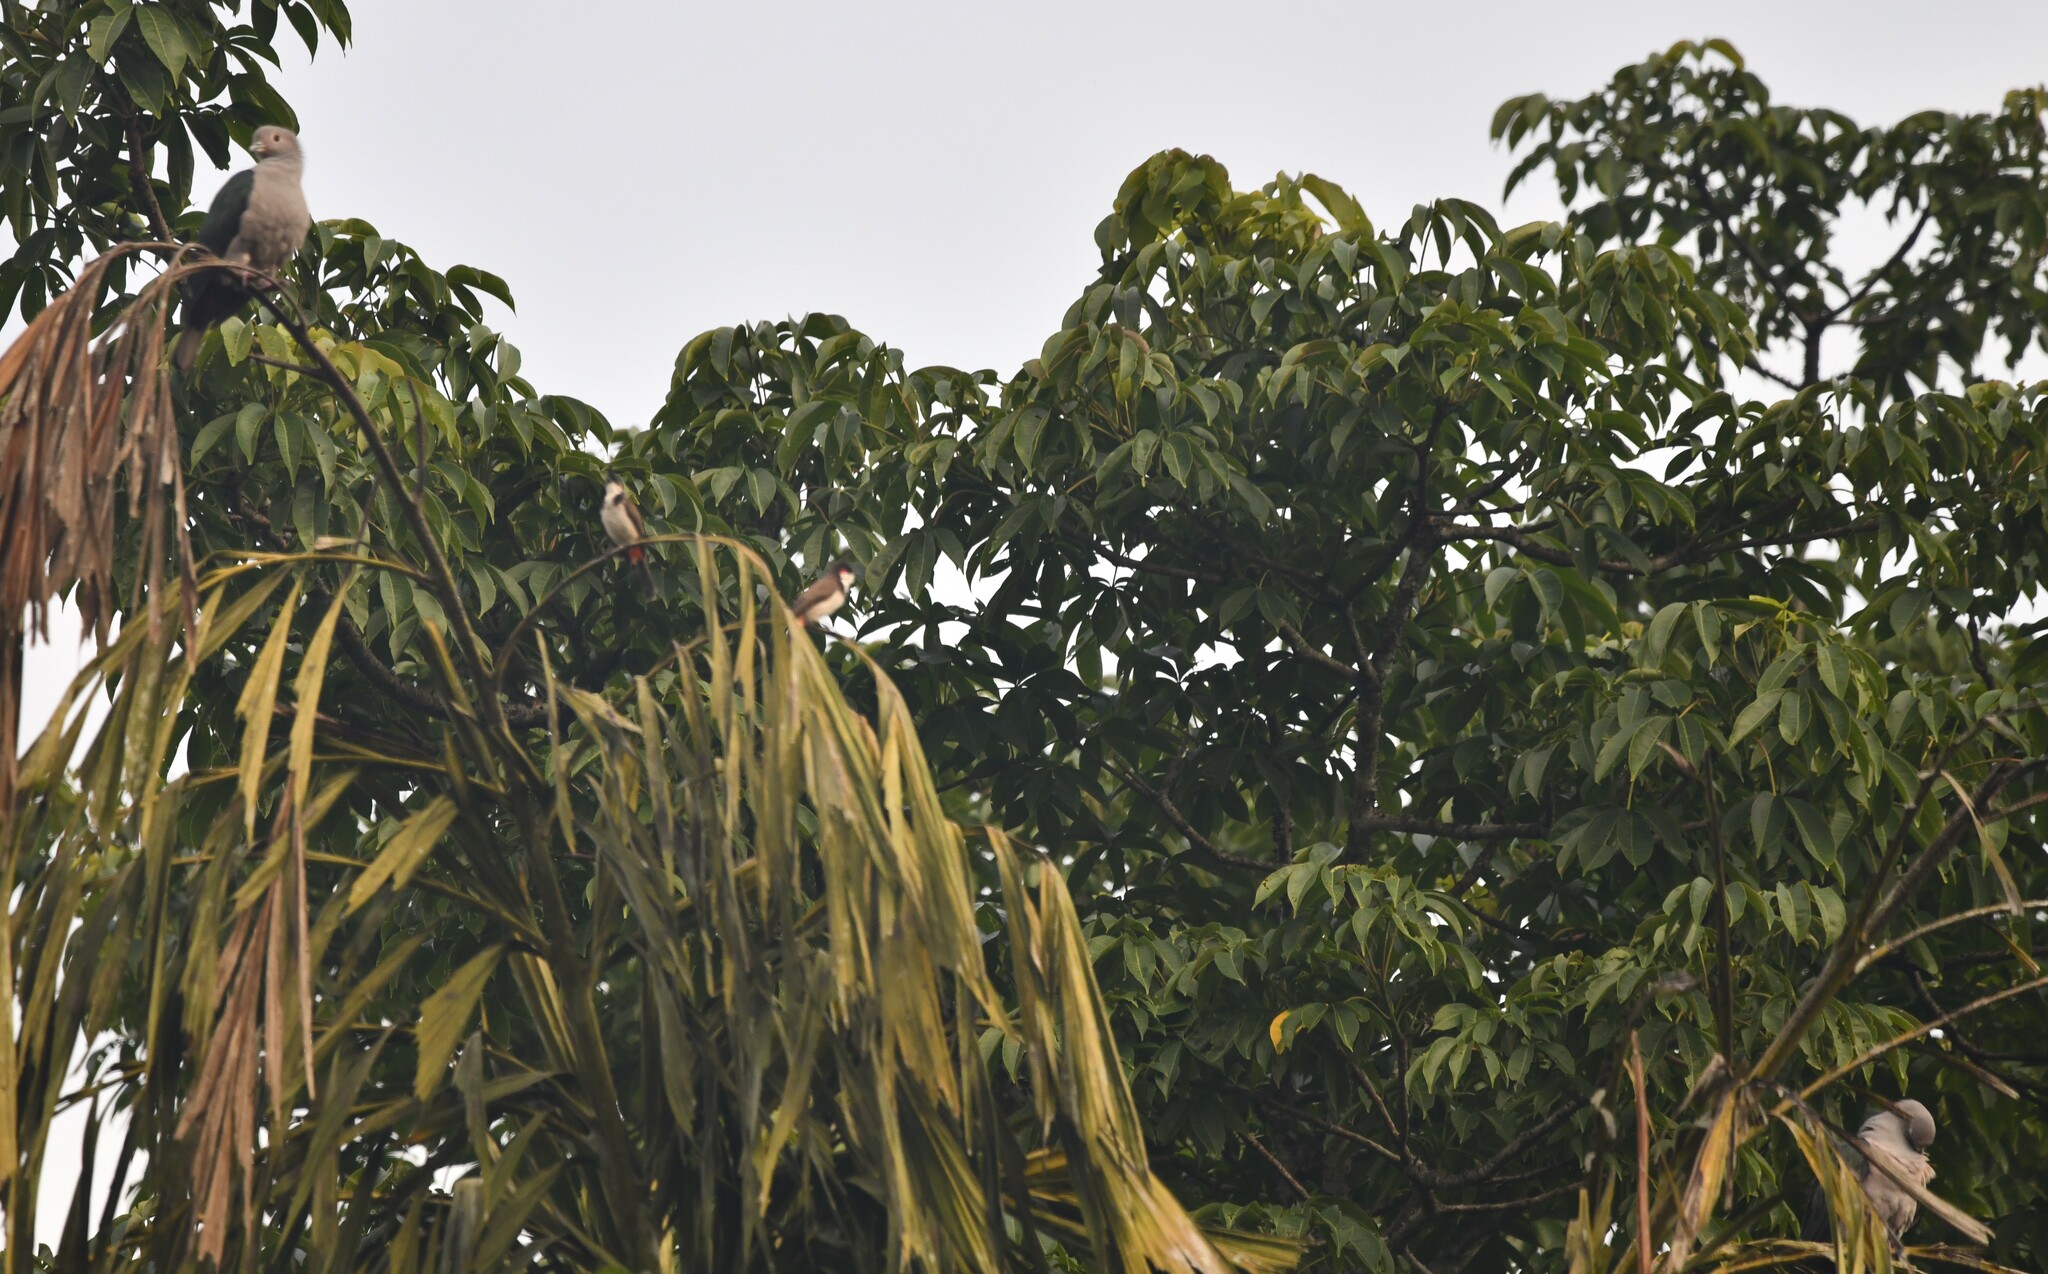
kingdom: Animalia
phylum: Chordata
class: Aves
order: Passeriformes
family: Pycnonotidae
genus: Pycnonotus
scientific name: Pycnonotus jocosus
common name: Red-whiskered bulbul
